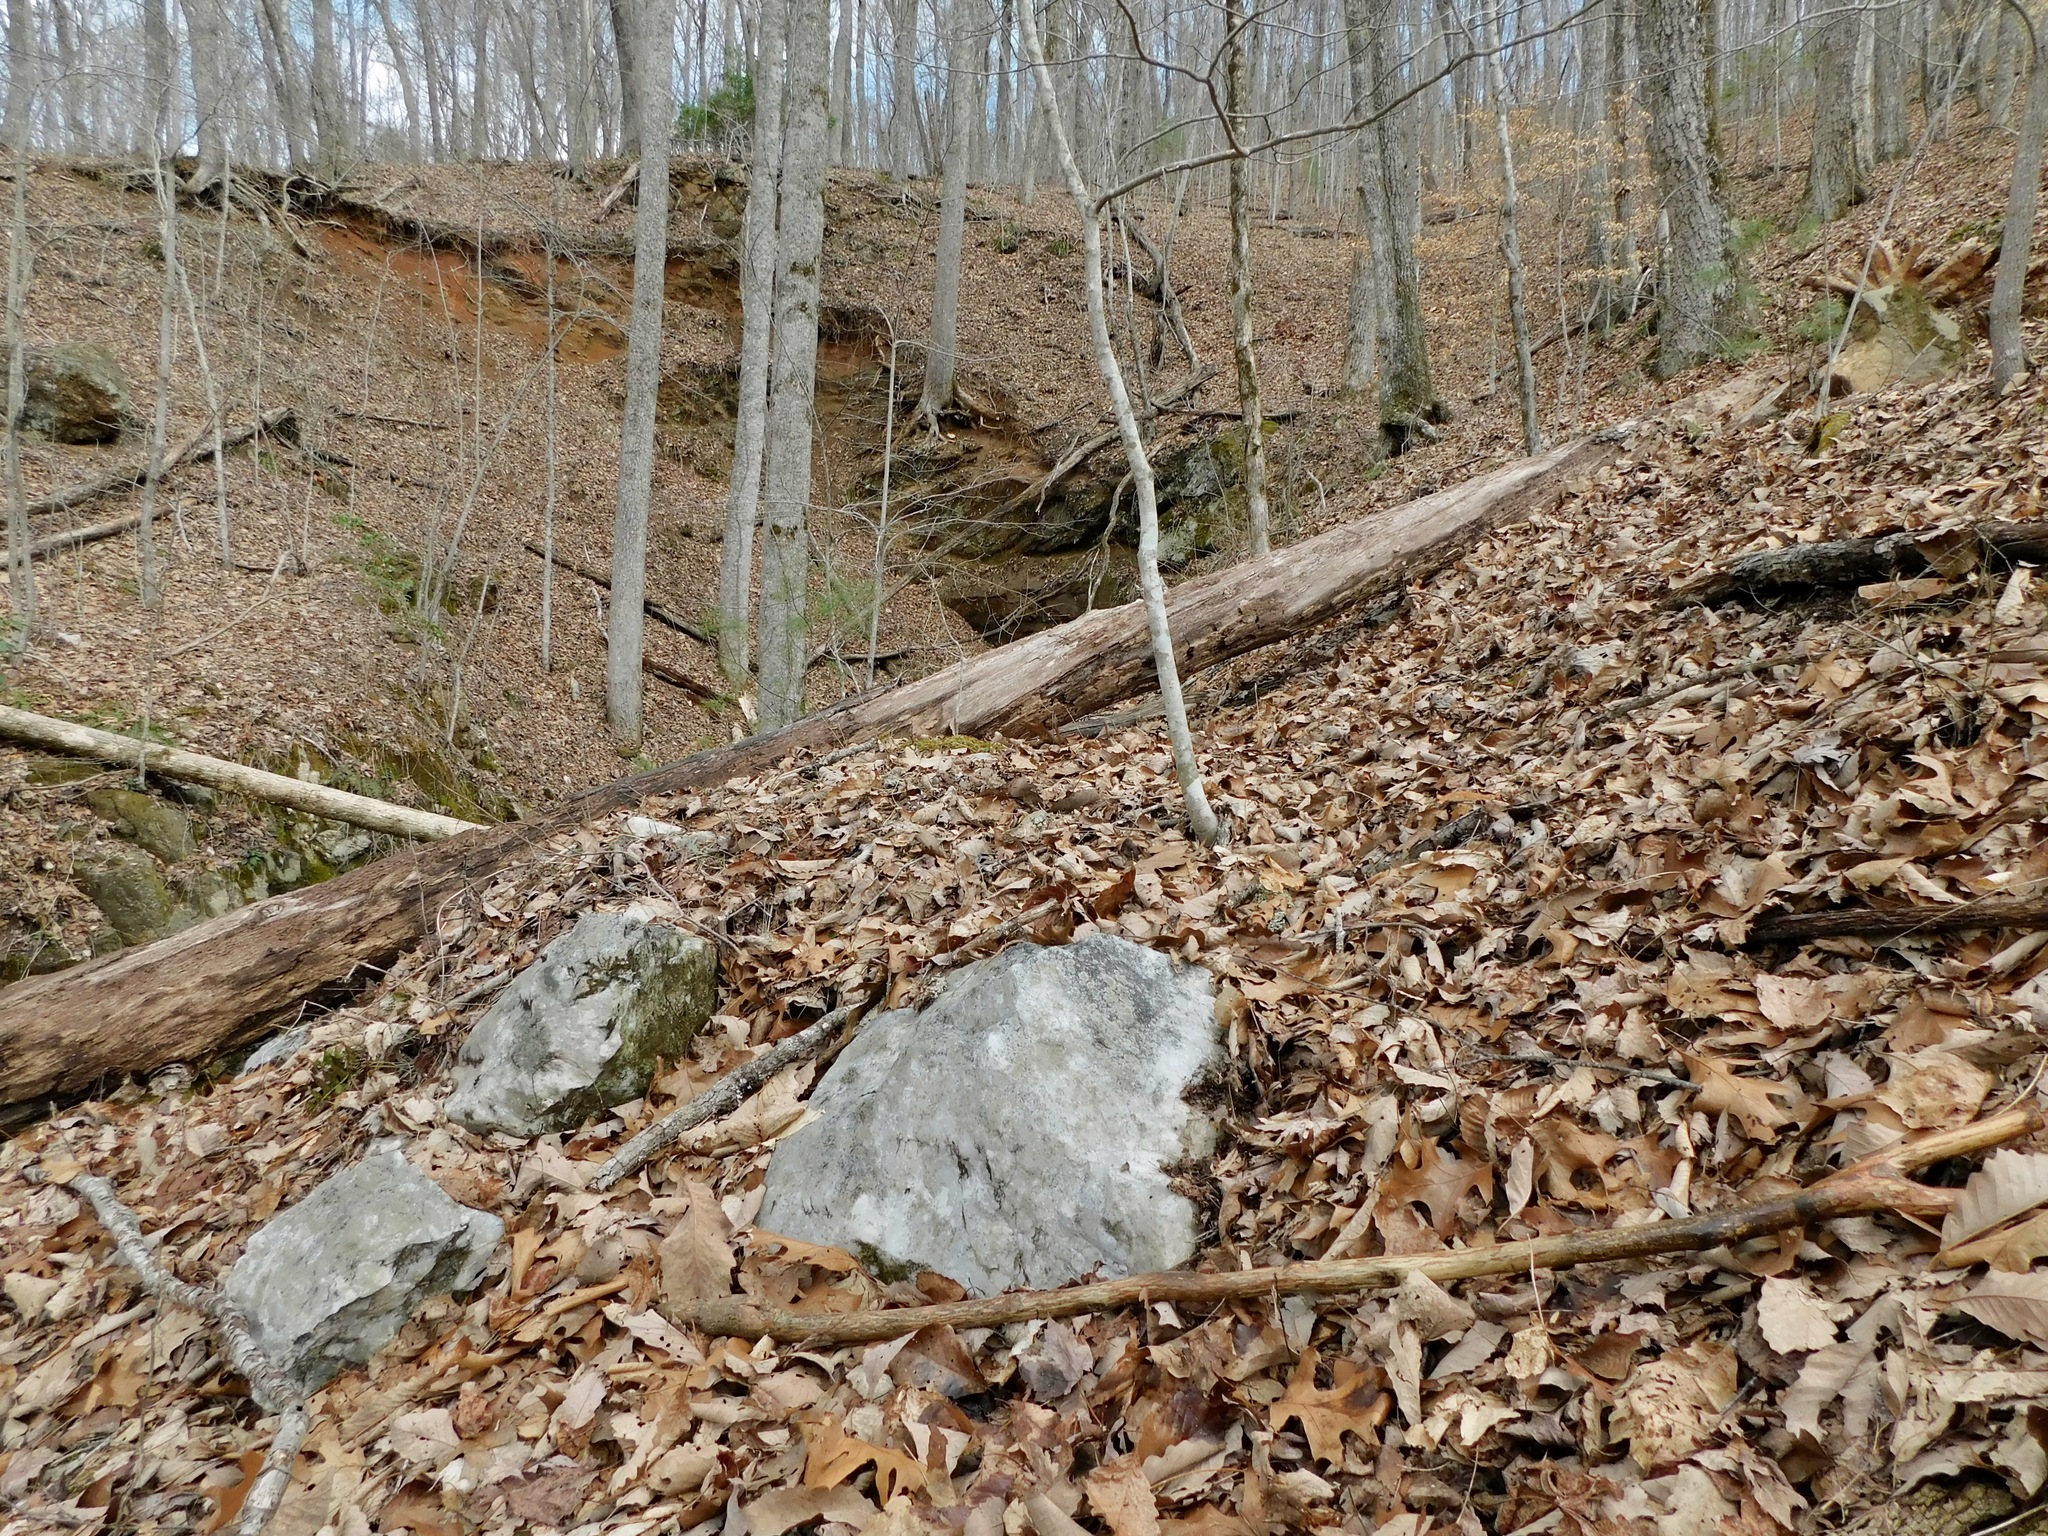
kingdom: Fungi
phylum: Ascomycota
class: Lecanoromycetes
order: Caliciales
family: Physciaceae
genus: Physcia
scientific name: Physcia subtilis
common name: Slender rosette lichen
